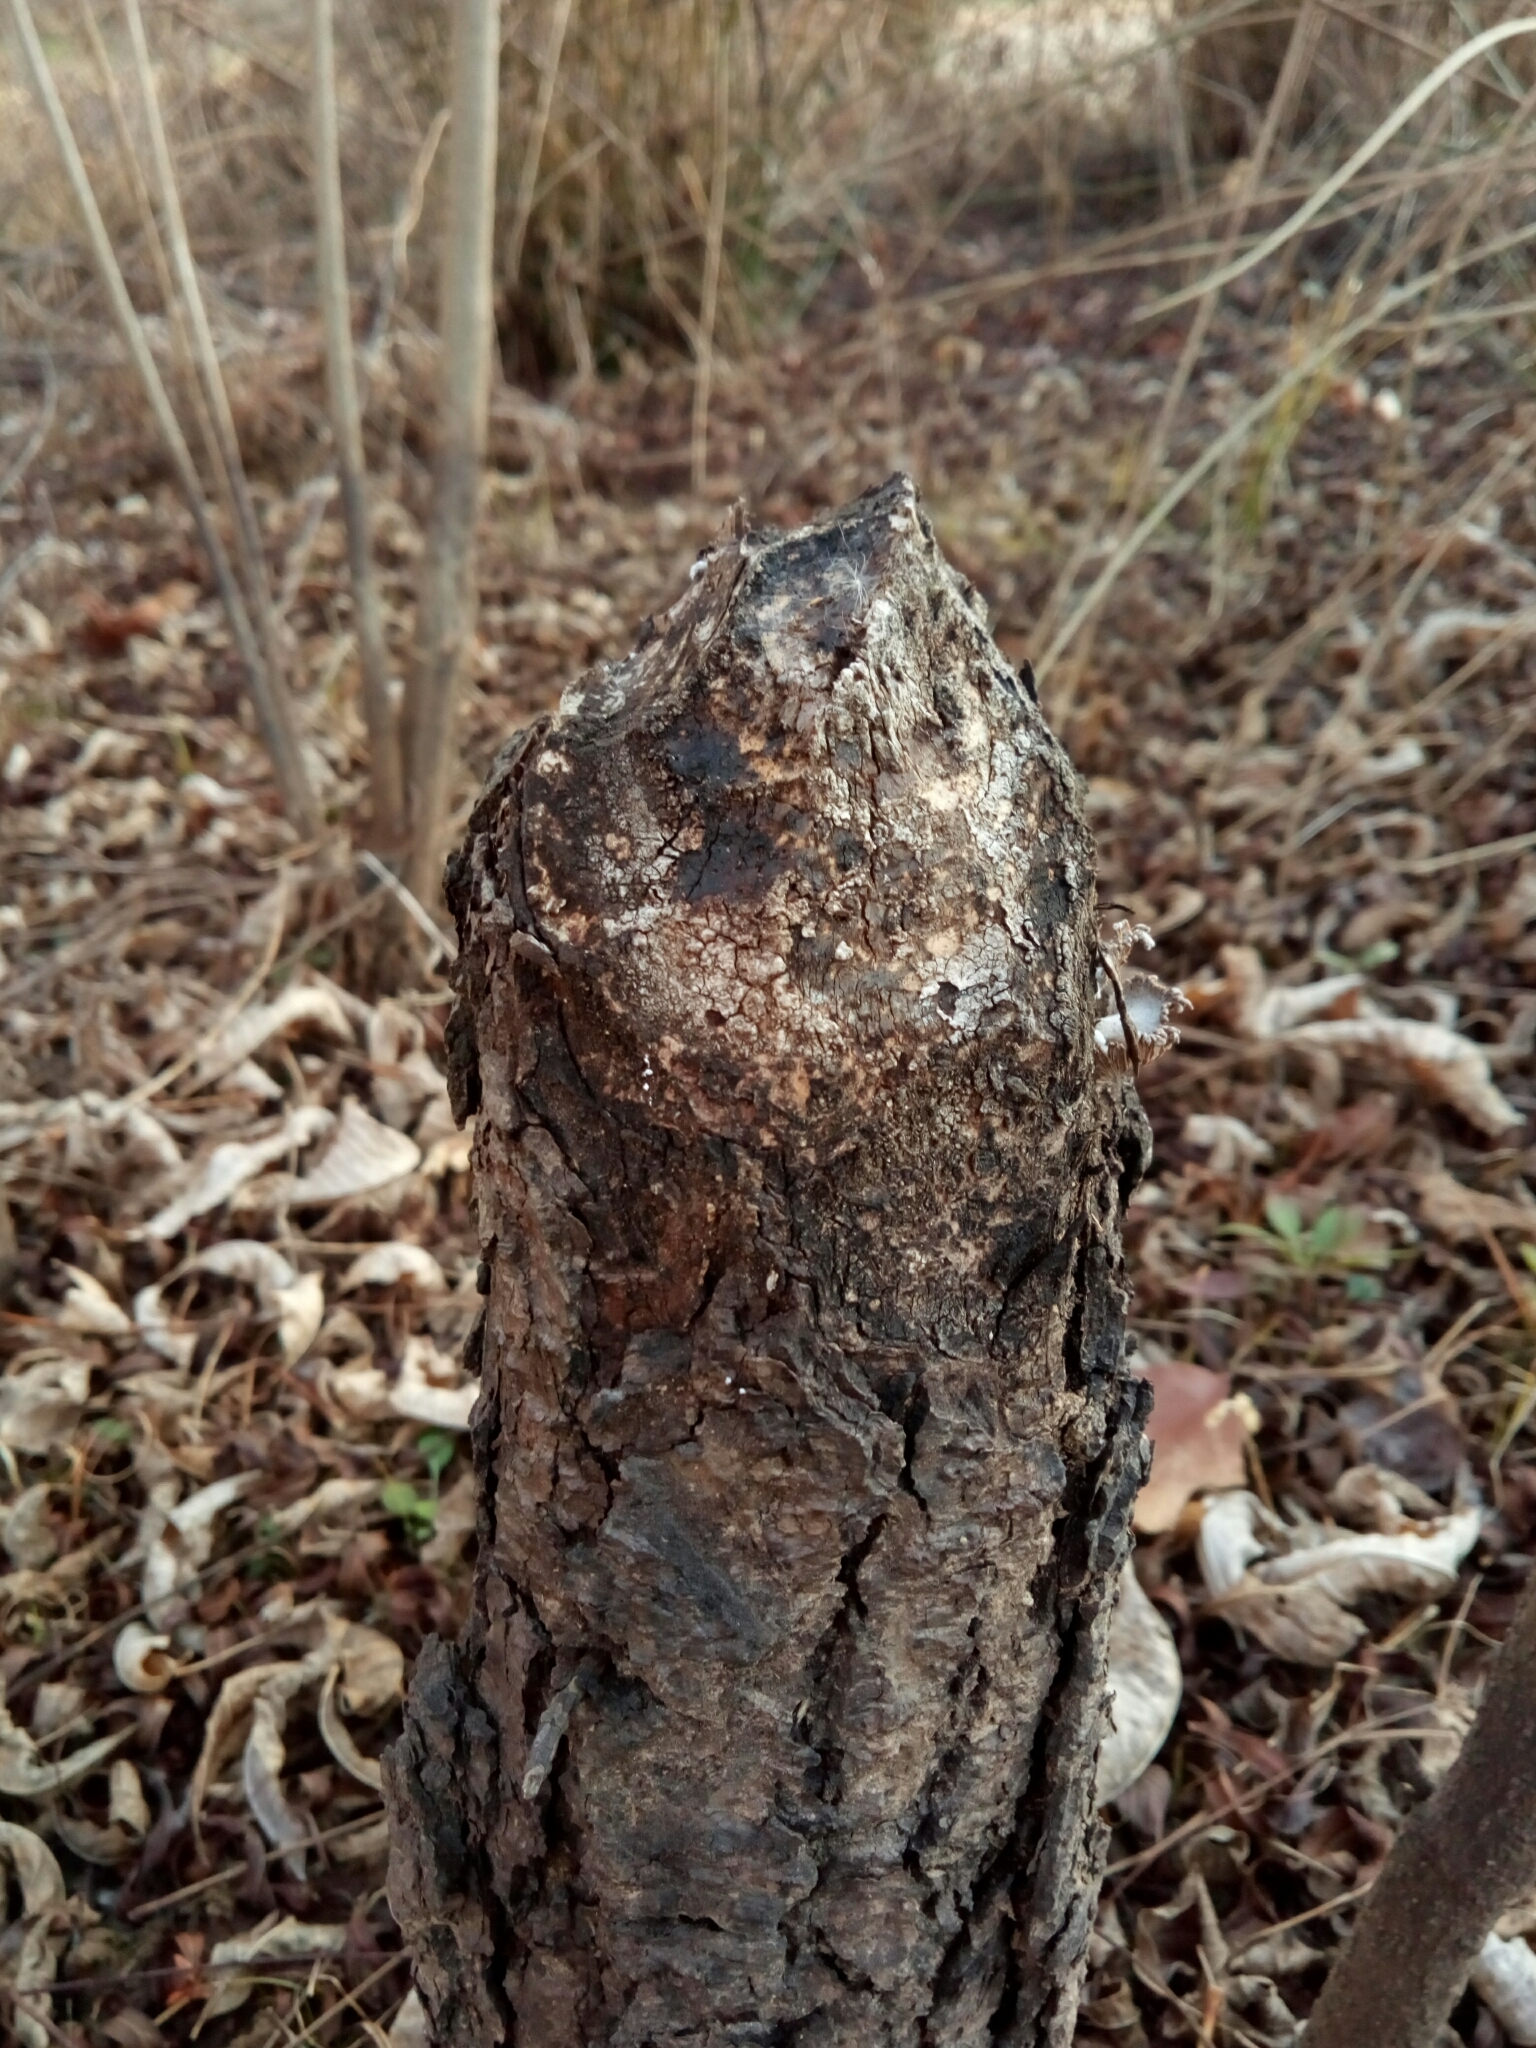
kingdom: Animalia
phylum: Chordata
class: Mammalia
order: Rodentia
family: Castoridae
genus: Castor
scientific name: Castor canadensis
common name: American beaver
